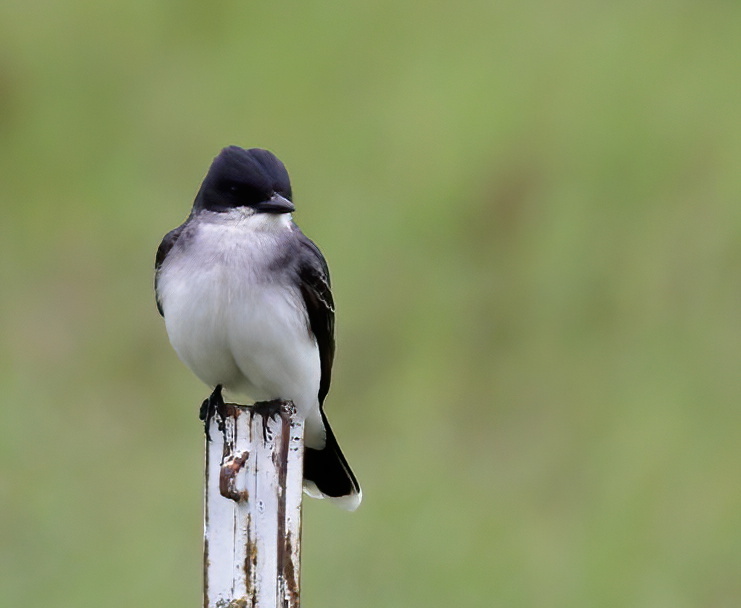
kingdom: Animalia
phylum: Chordata
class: Aves
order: Passeriformes
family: Tyrannidae
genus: Tyrannus
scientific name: Tyrannus tyrannus
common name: Eastern kingbird
